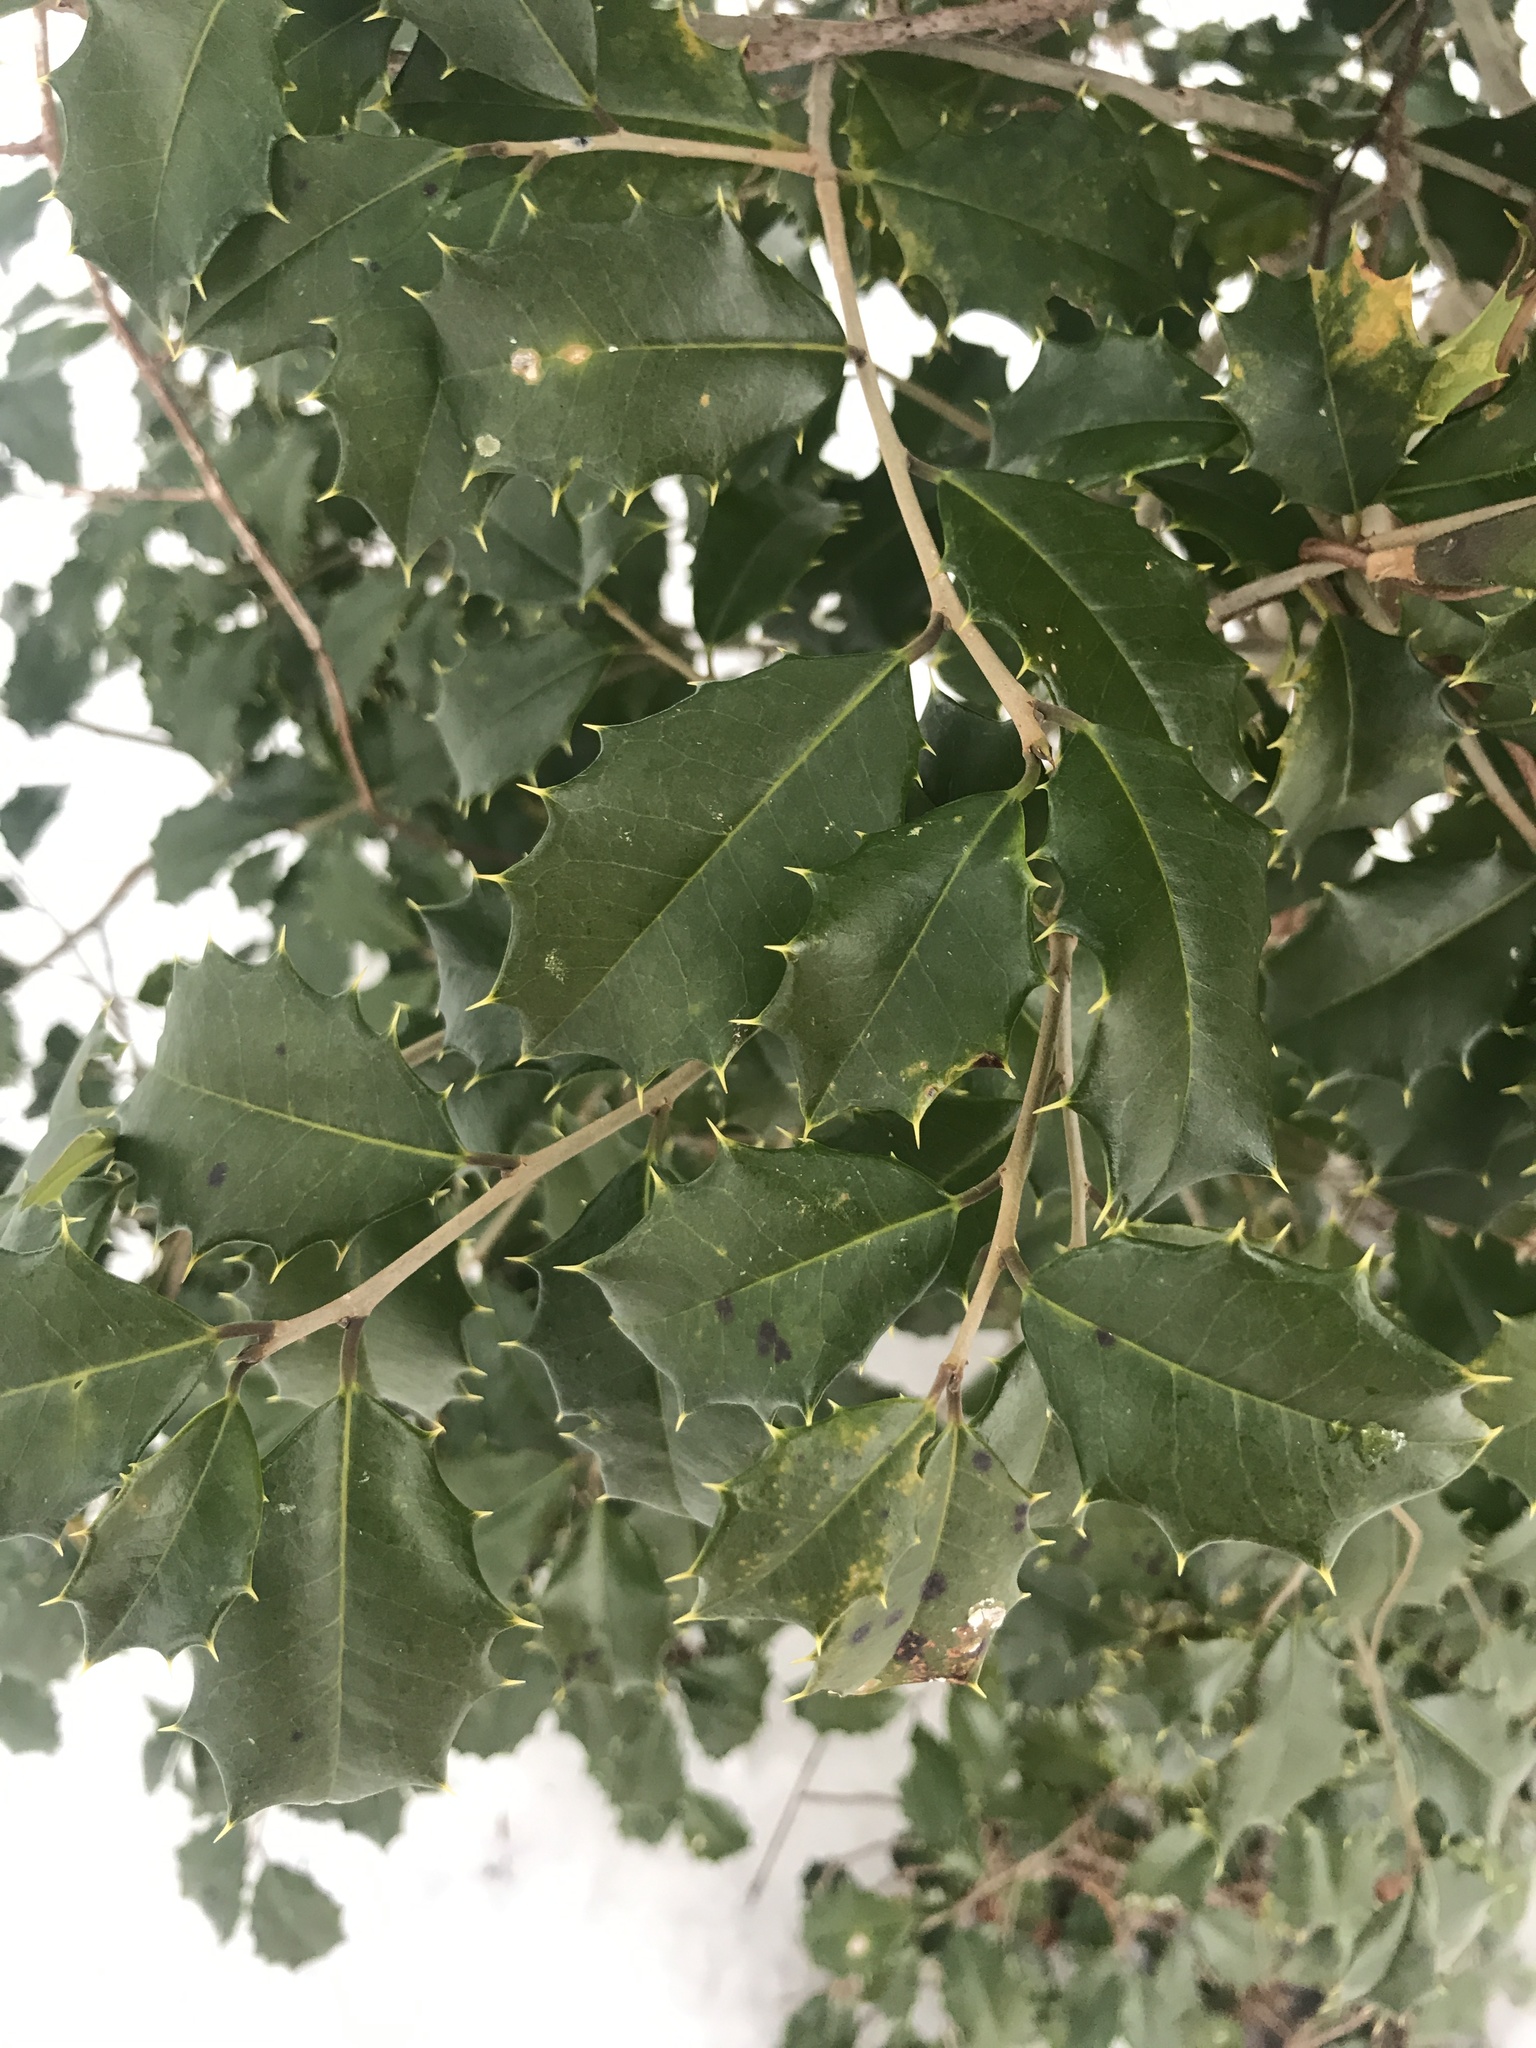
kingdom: Plantae
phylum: Tracheophyta
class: Magnoliopsida
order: Aquifoliales
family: Aquifoliaceae
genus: Ilex
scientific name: Ilex opaca
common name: American holly
